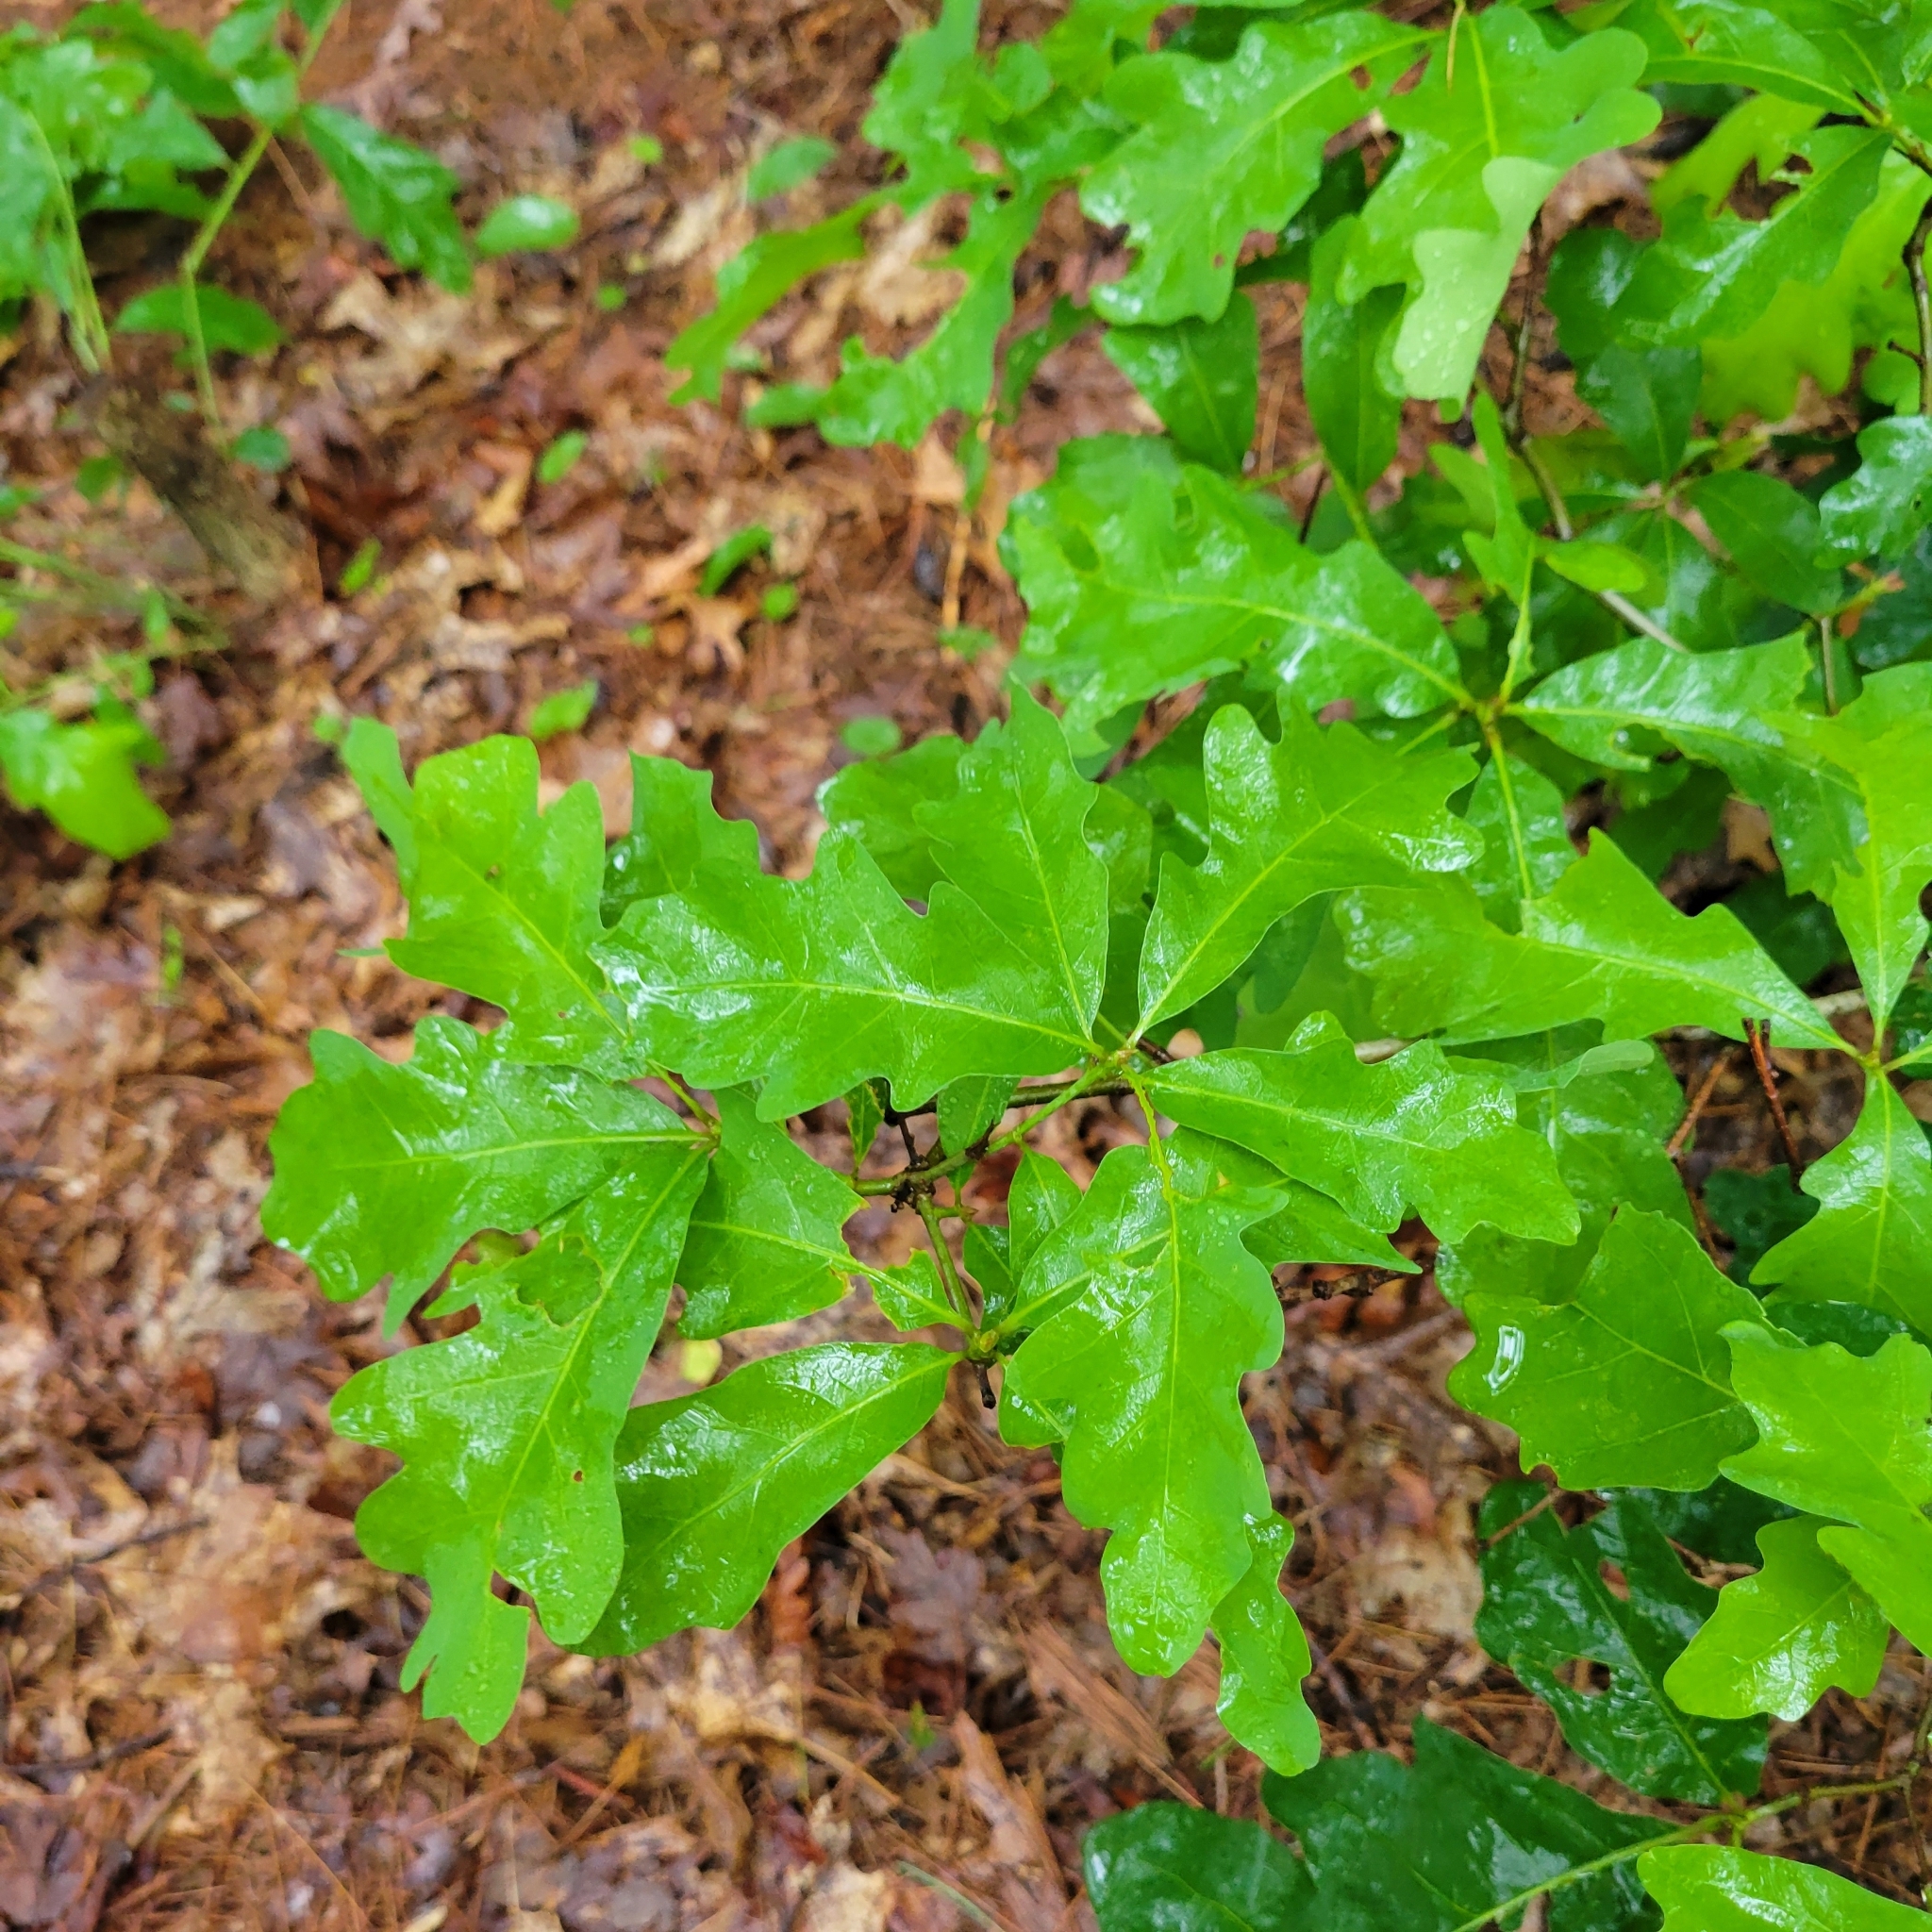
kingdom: Plantae
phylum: Tracheophyta
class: Magnoliopsida
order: Fagales
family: Fagaceae
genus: Quercus
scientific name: Quercus alba
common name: White oak
